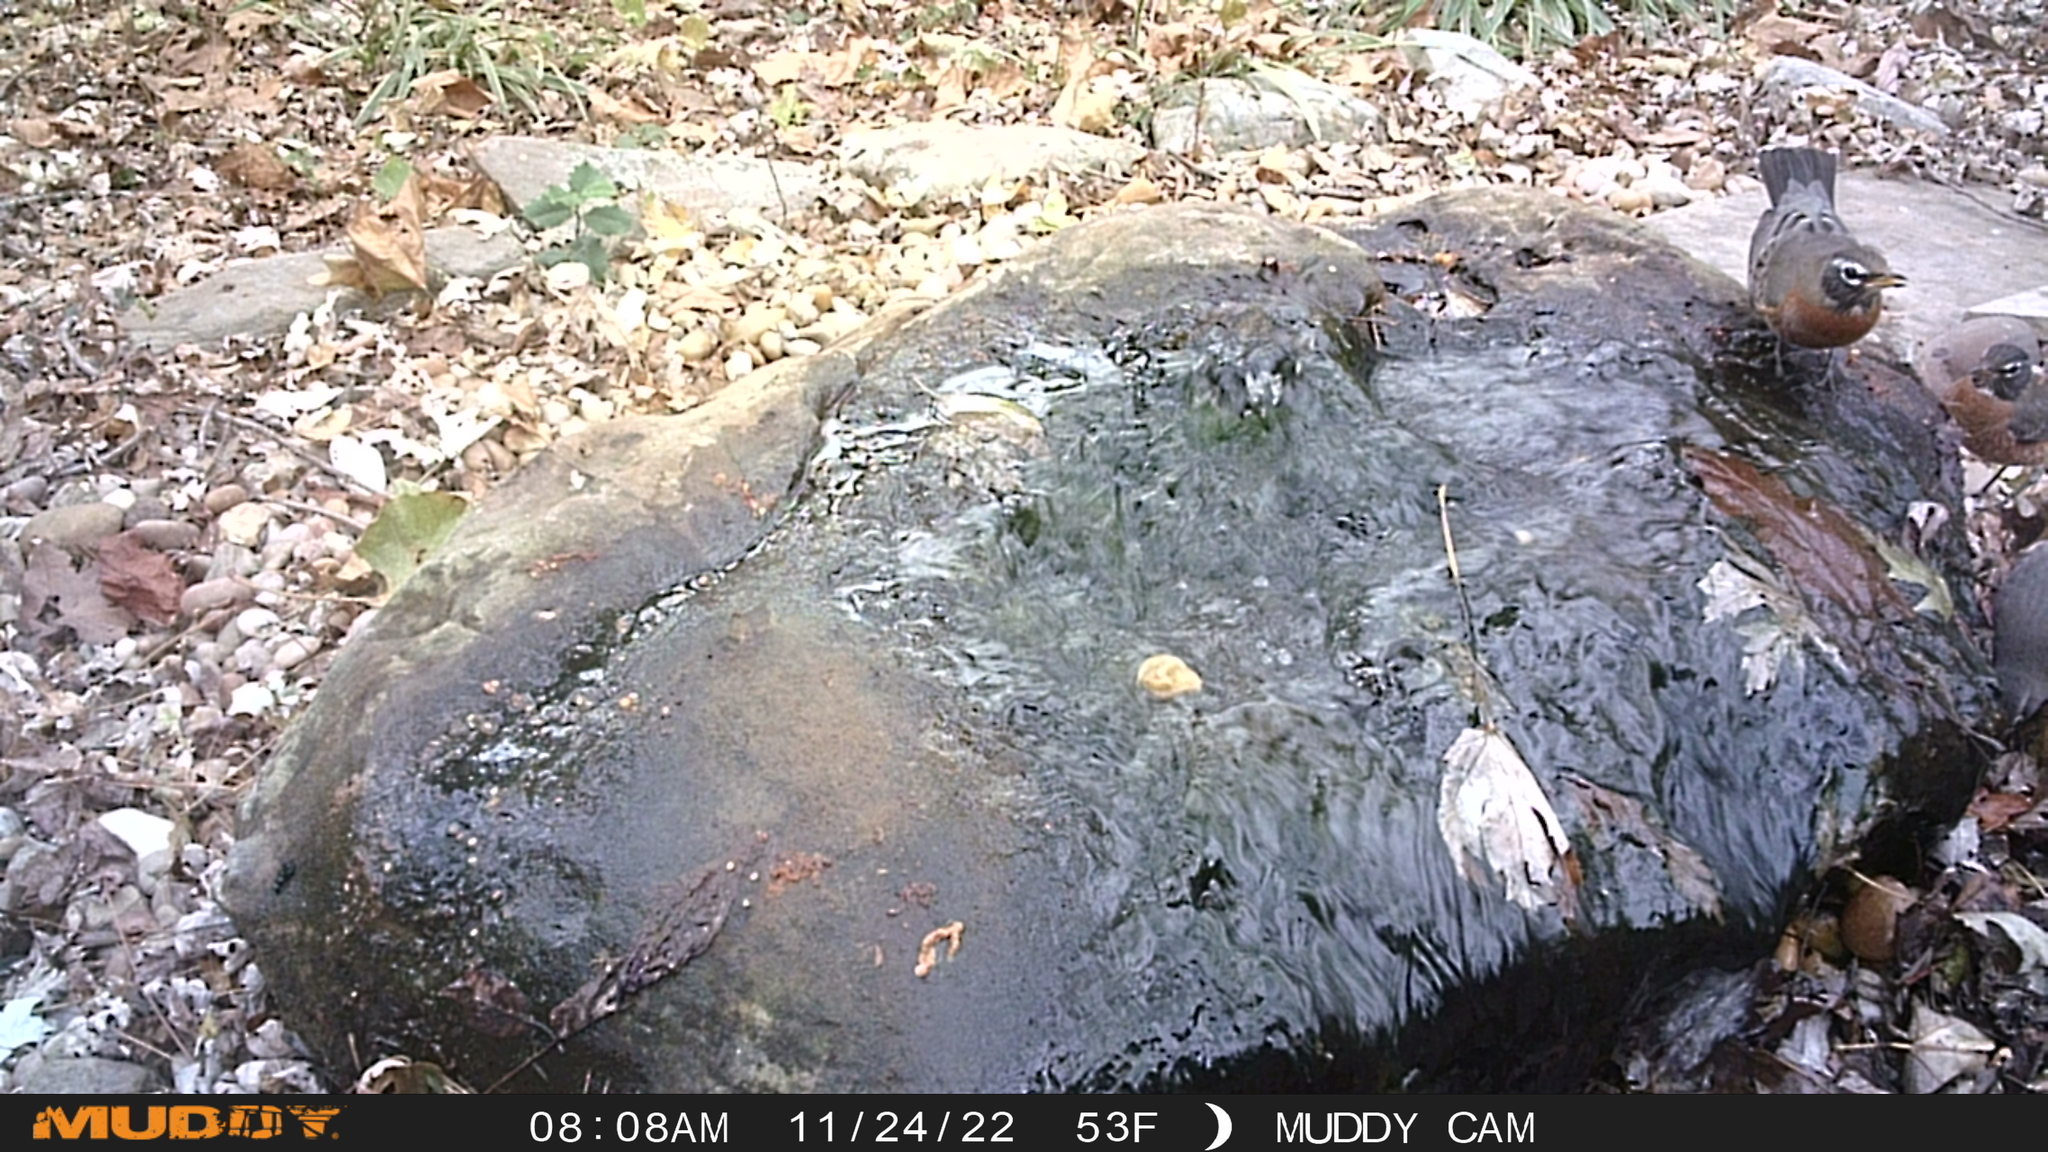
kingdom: Animalia
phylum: Chordata
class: Aves
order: Passeriformes
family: Turdidae
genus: Turdus
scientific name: Turdus migratorius
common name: American robin
